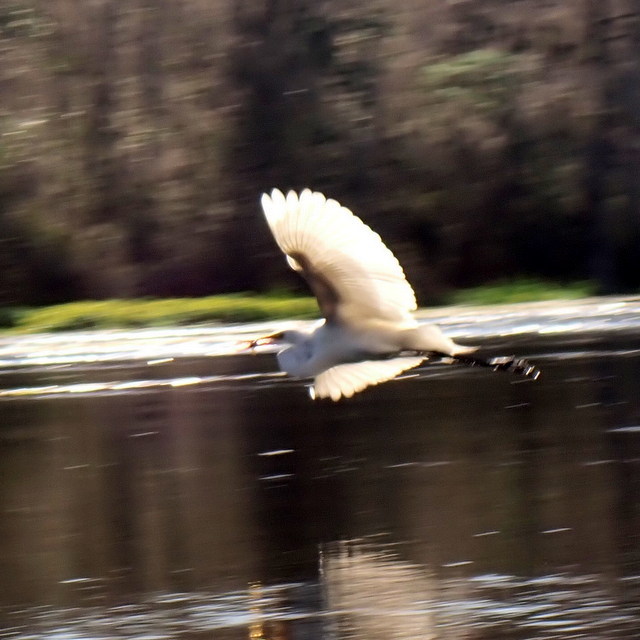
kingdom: Animalia
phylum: Chordata
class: Aves
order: Pelecaniformes
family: Ardeidae
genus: Ardea
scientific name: Ardea alba
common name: Great egret
